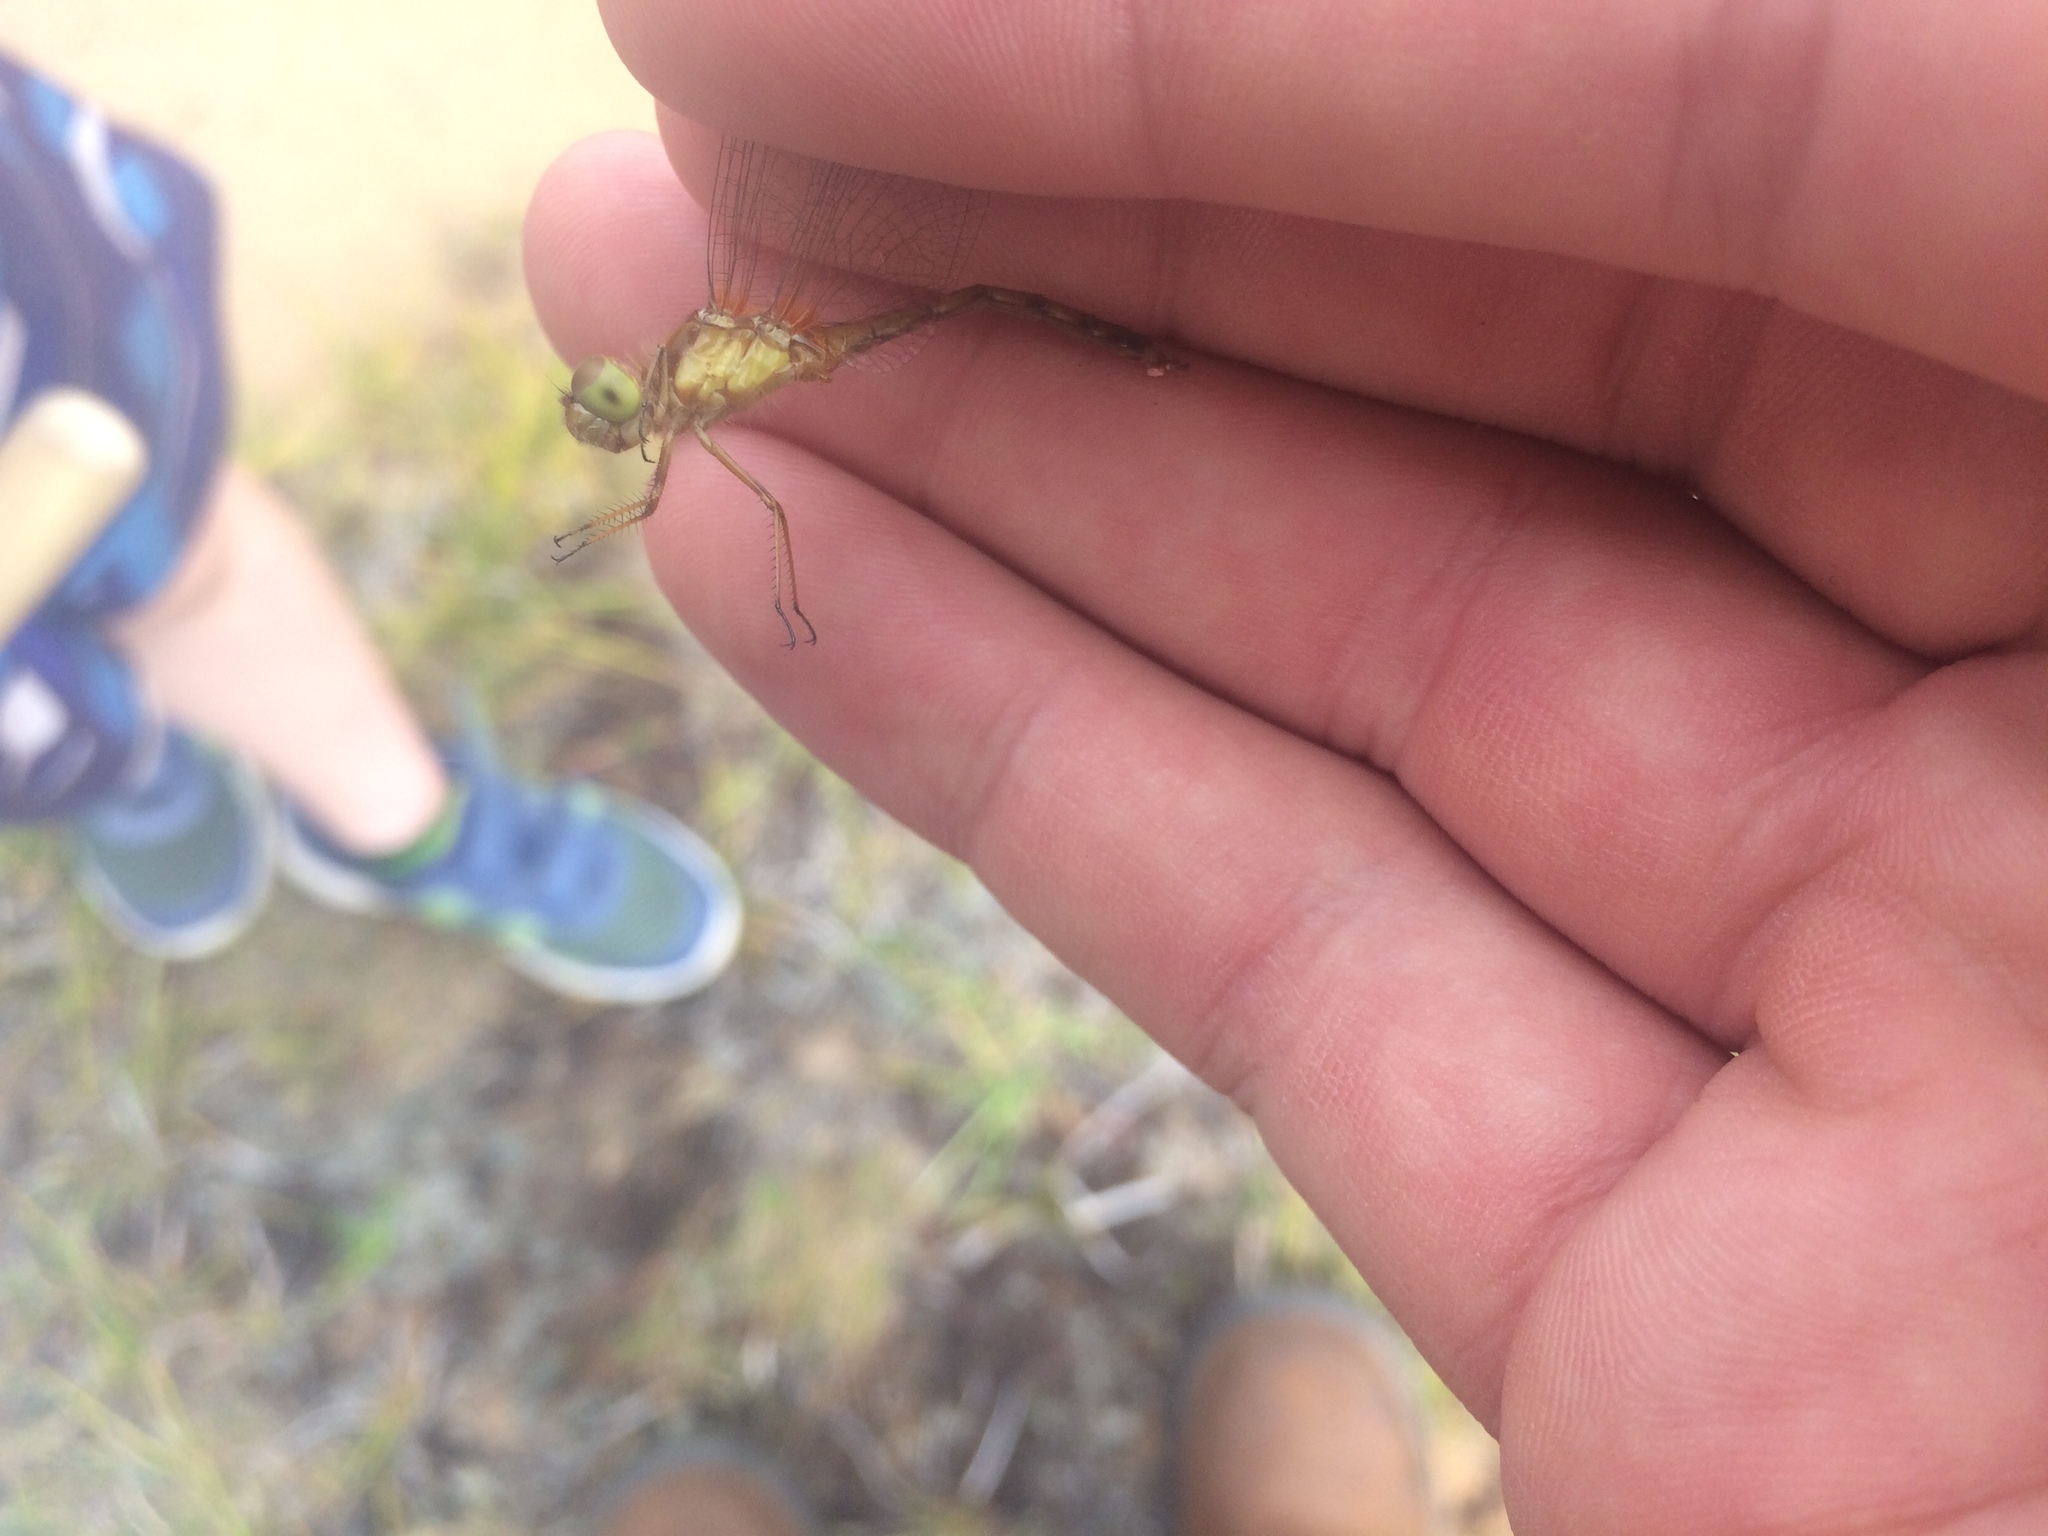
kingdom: Animalia
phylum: Arthropoda
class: Insecta
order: Odonata
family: Libellulidae
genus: Sympetrum
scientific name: Sympetrum vicinum
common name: Autumn meadowhawk
